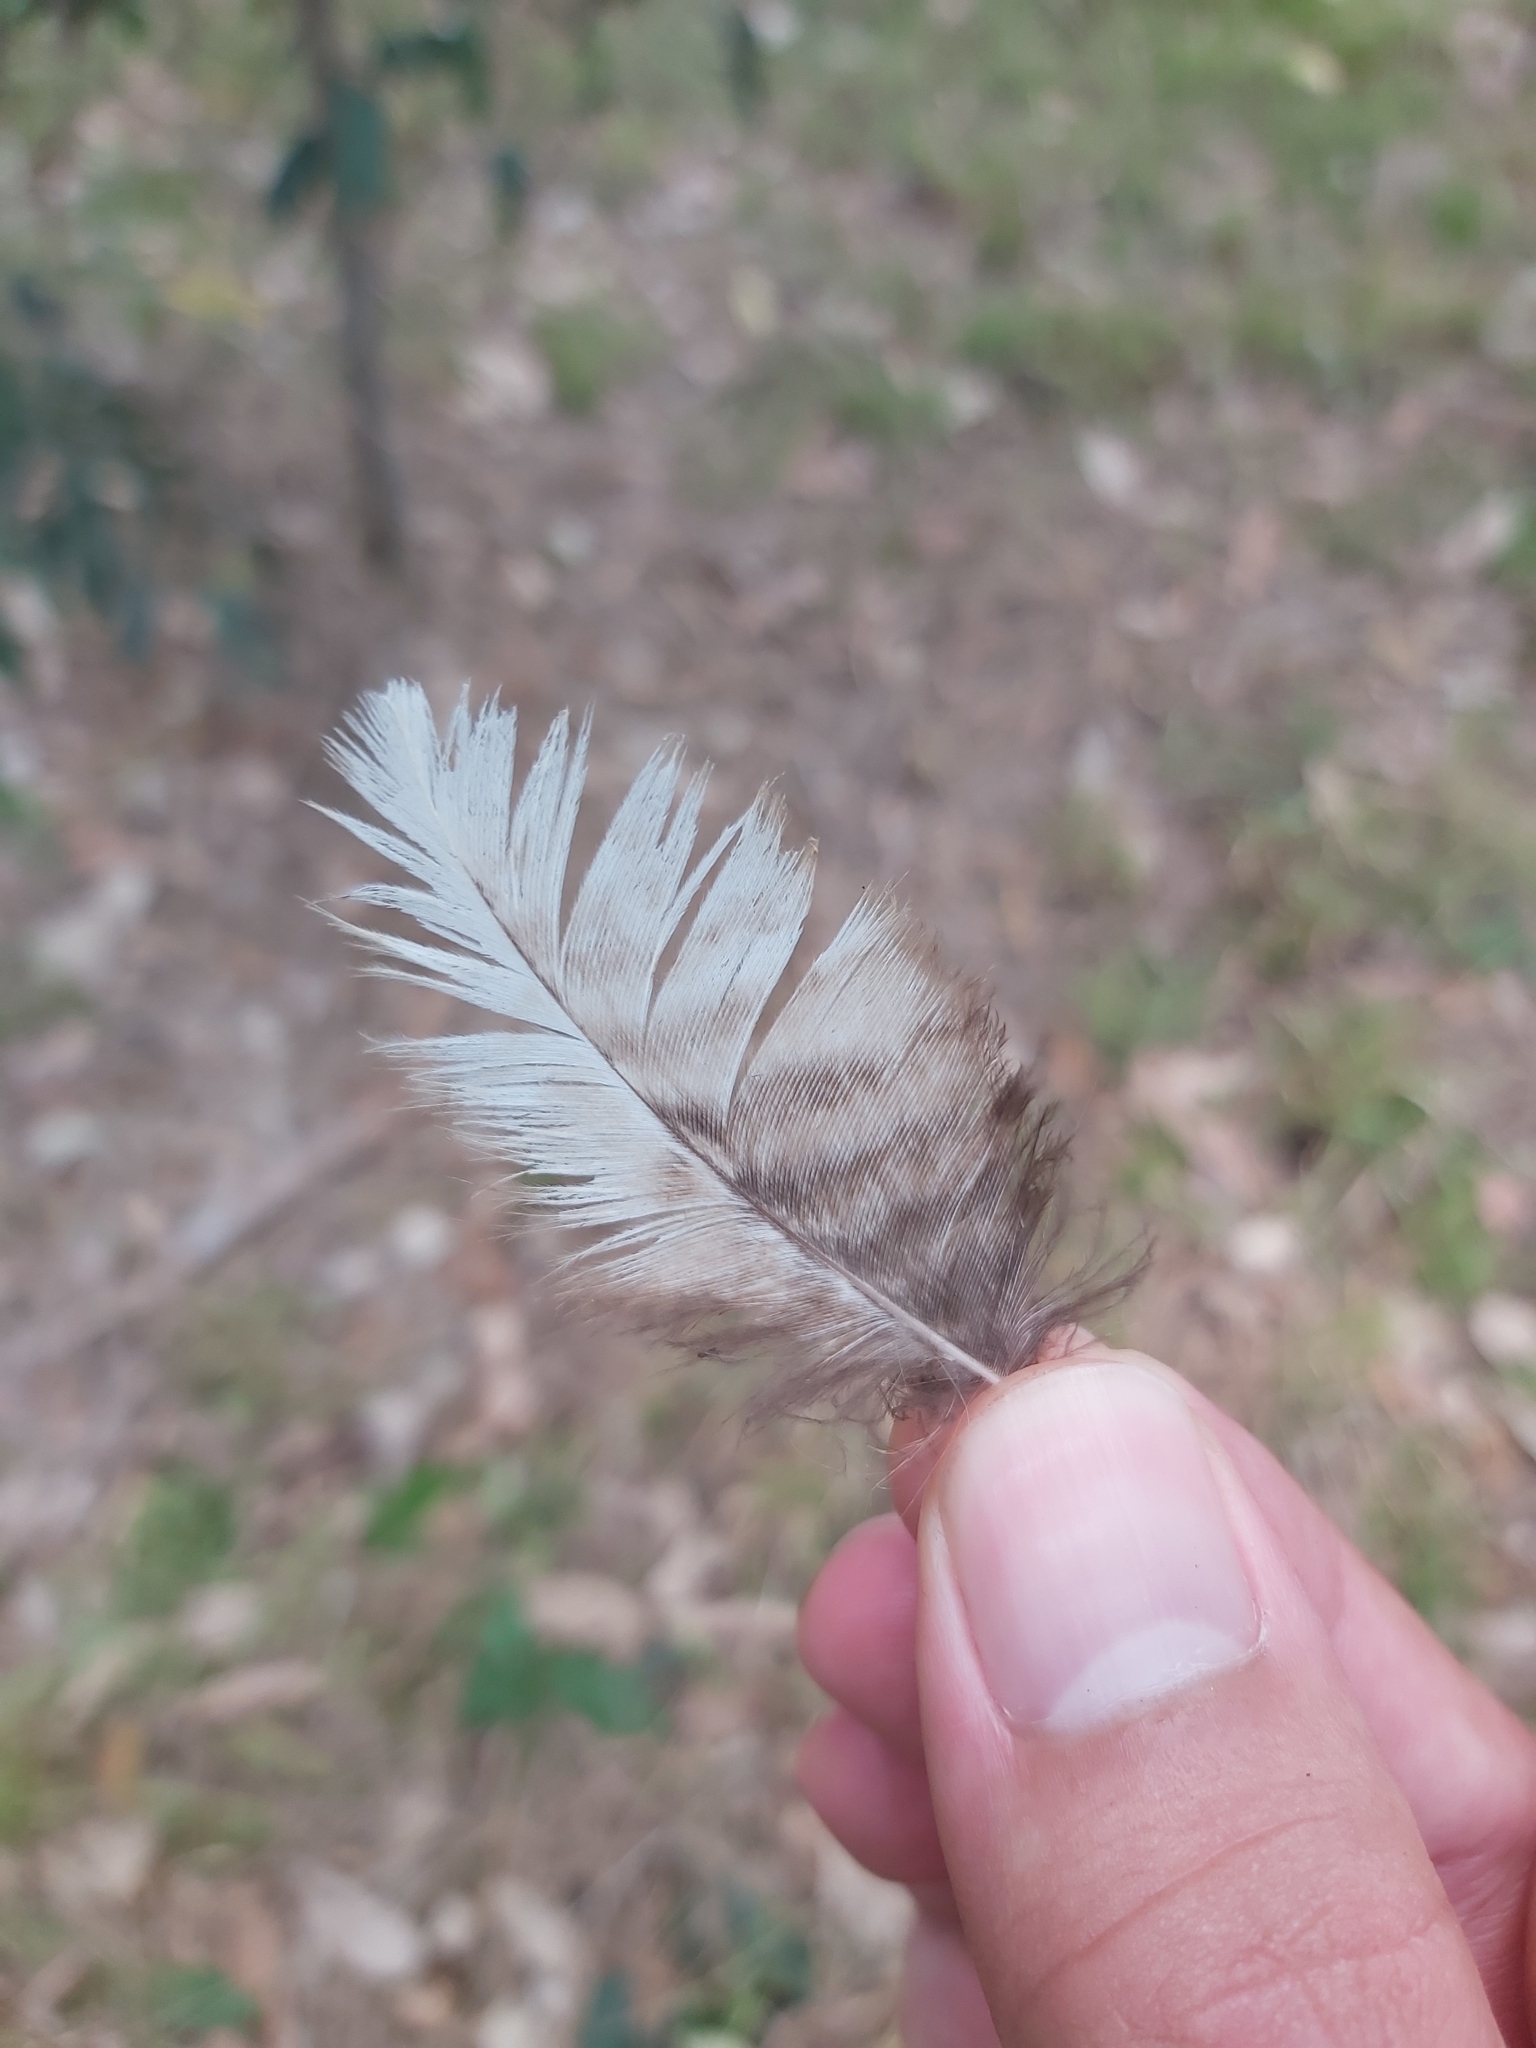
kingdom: Animalia
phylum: Chordata
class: Aves
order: Caprimulgiformes
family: Podargidae
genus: Podargus
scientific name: Podargus strigoides
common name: Tawny frogmouth
